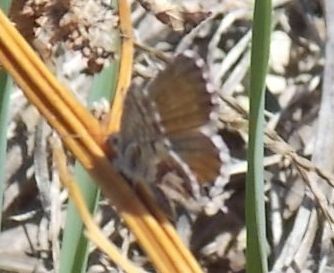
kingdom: Animalia
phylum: Arthropoda
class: Insecta
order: Lepidoptera
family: Lycaenidae
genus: Cacyreus
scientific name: Cacyreus marshalli
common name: Geranium bronze
